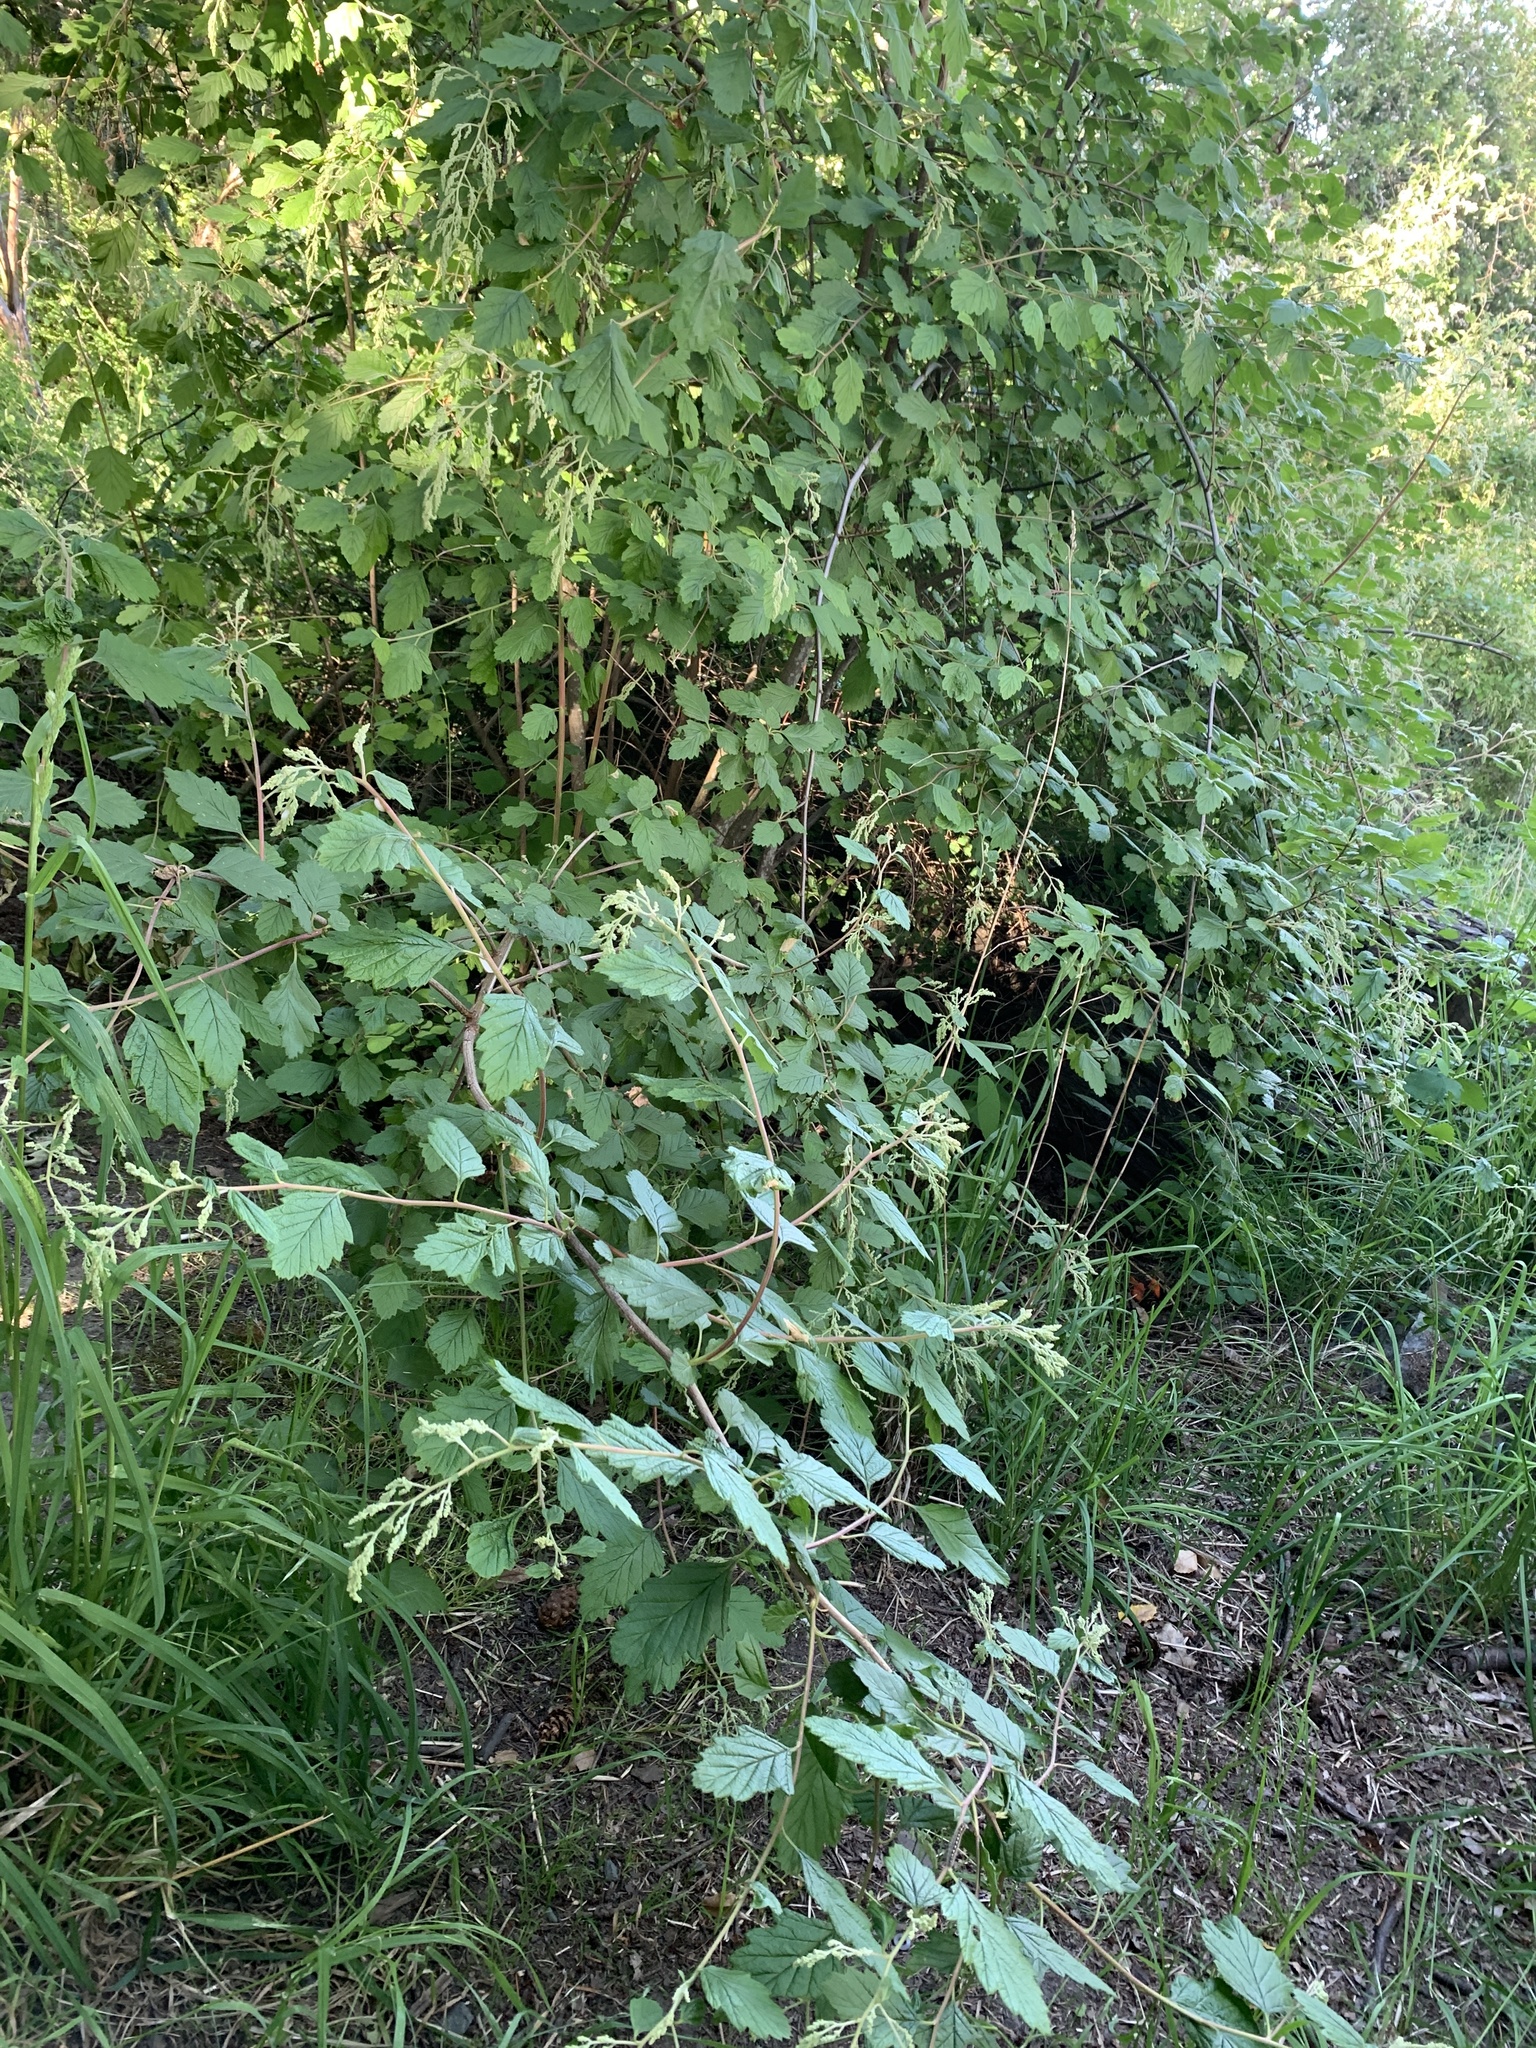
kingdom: Plantae
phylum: Tracheophyta
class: Magnoliopsida
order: Rosales
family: Rosaceae
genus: Holodiscus
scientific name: Holodiscus discolor
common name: Oceanspray
